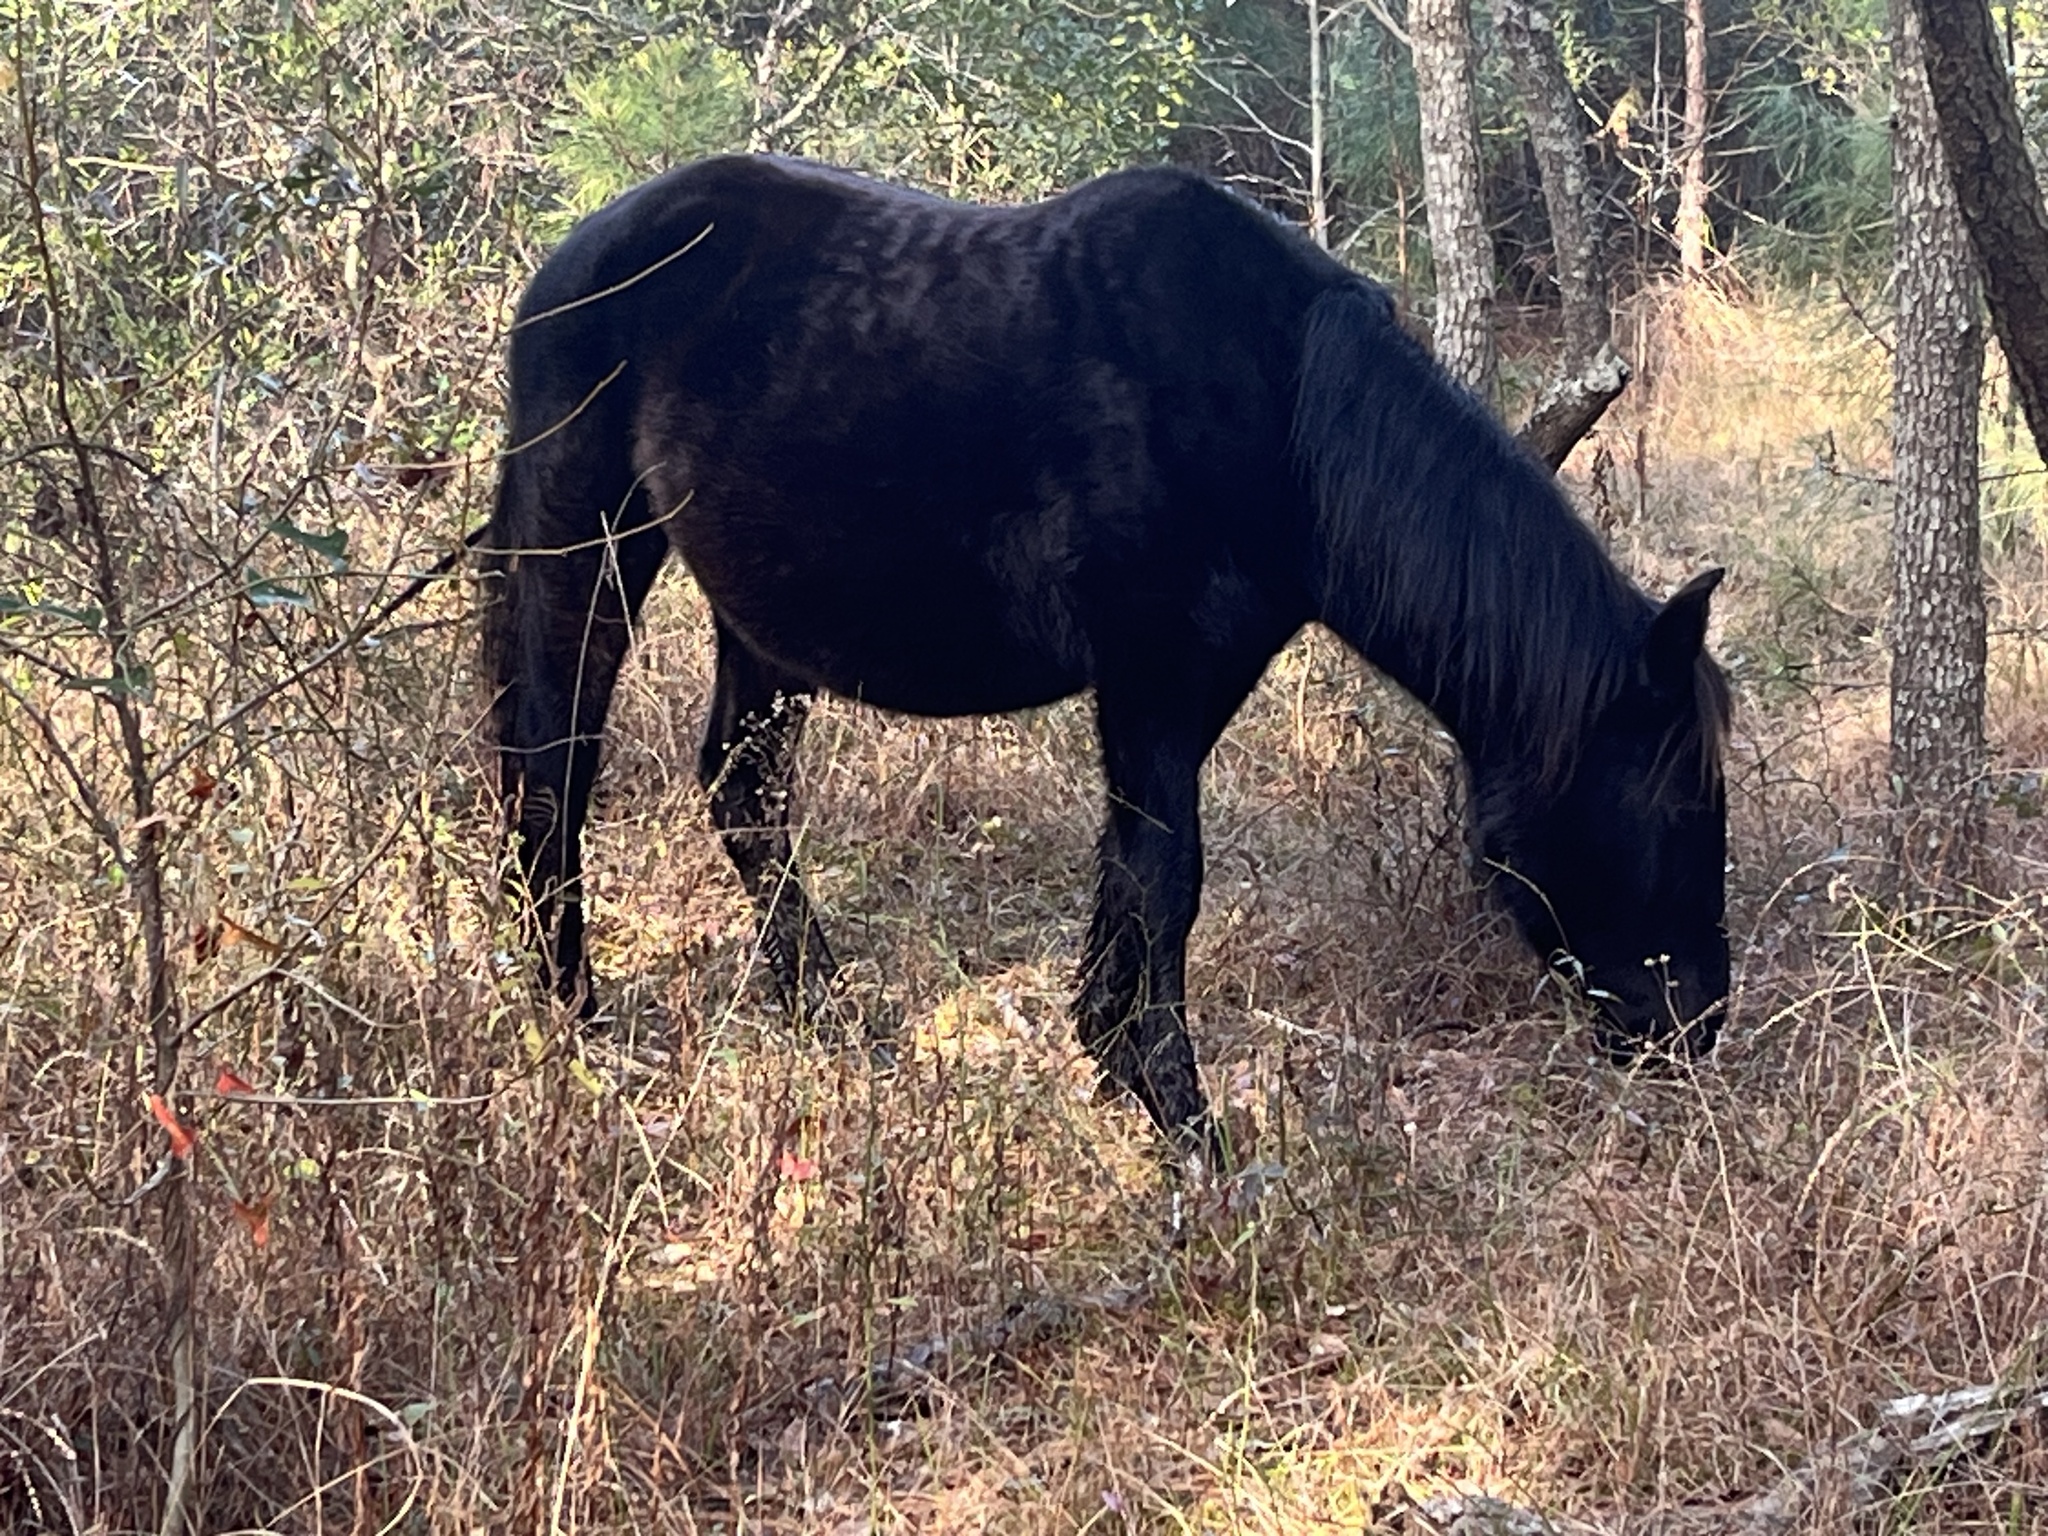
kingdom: Animalia
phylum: Chordata
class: Mammalia
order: Perissodactyla
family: Equidae
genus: Equus
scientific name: Equus caballus
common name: Horse
